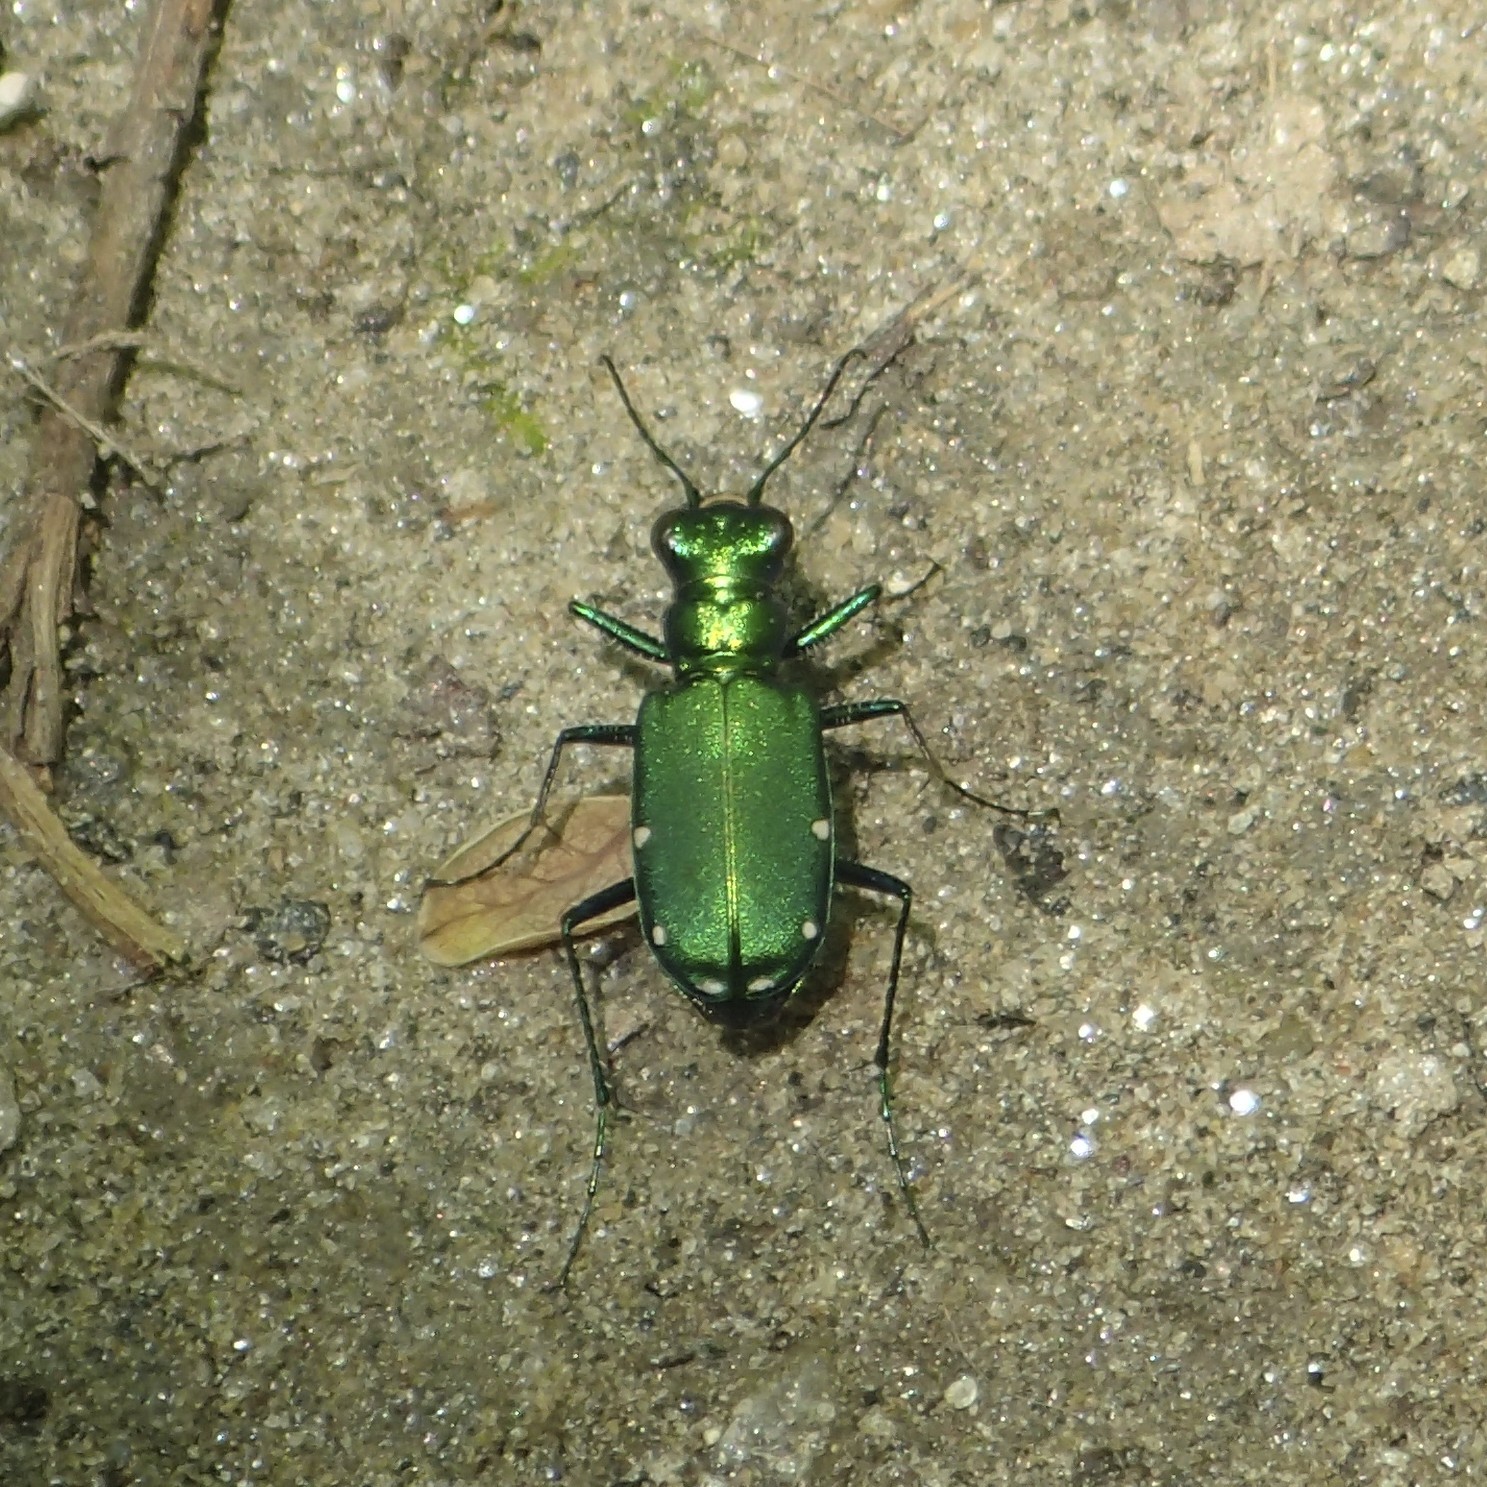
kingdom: Animalia
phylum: Arthropoda
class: Insecta
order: Coleoptera
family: Carabidae
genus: Cicindela
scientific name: Cicindela sexguttata
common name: Six-spotted tiger beetle
